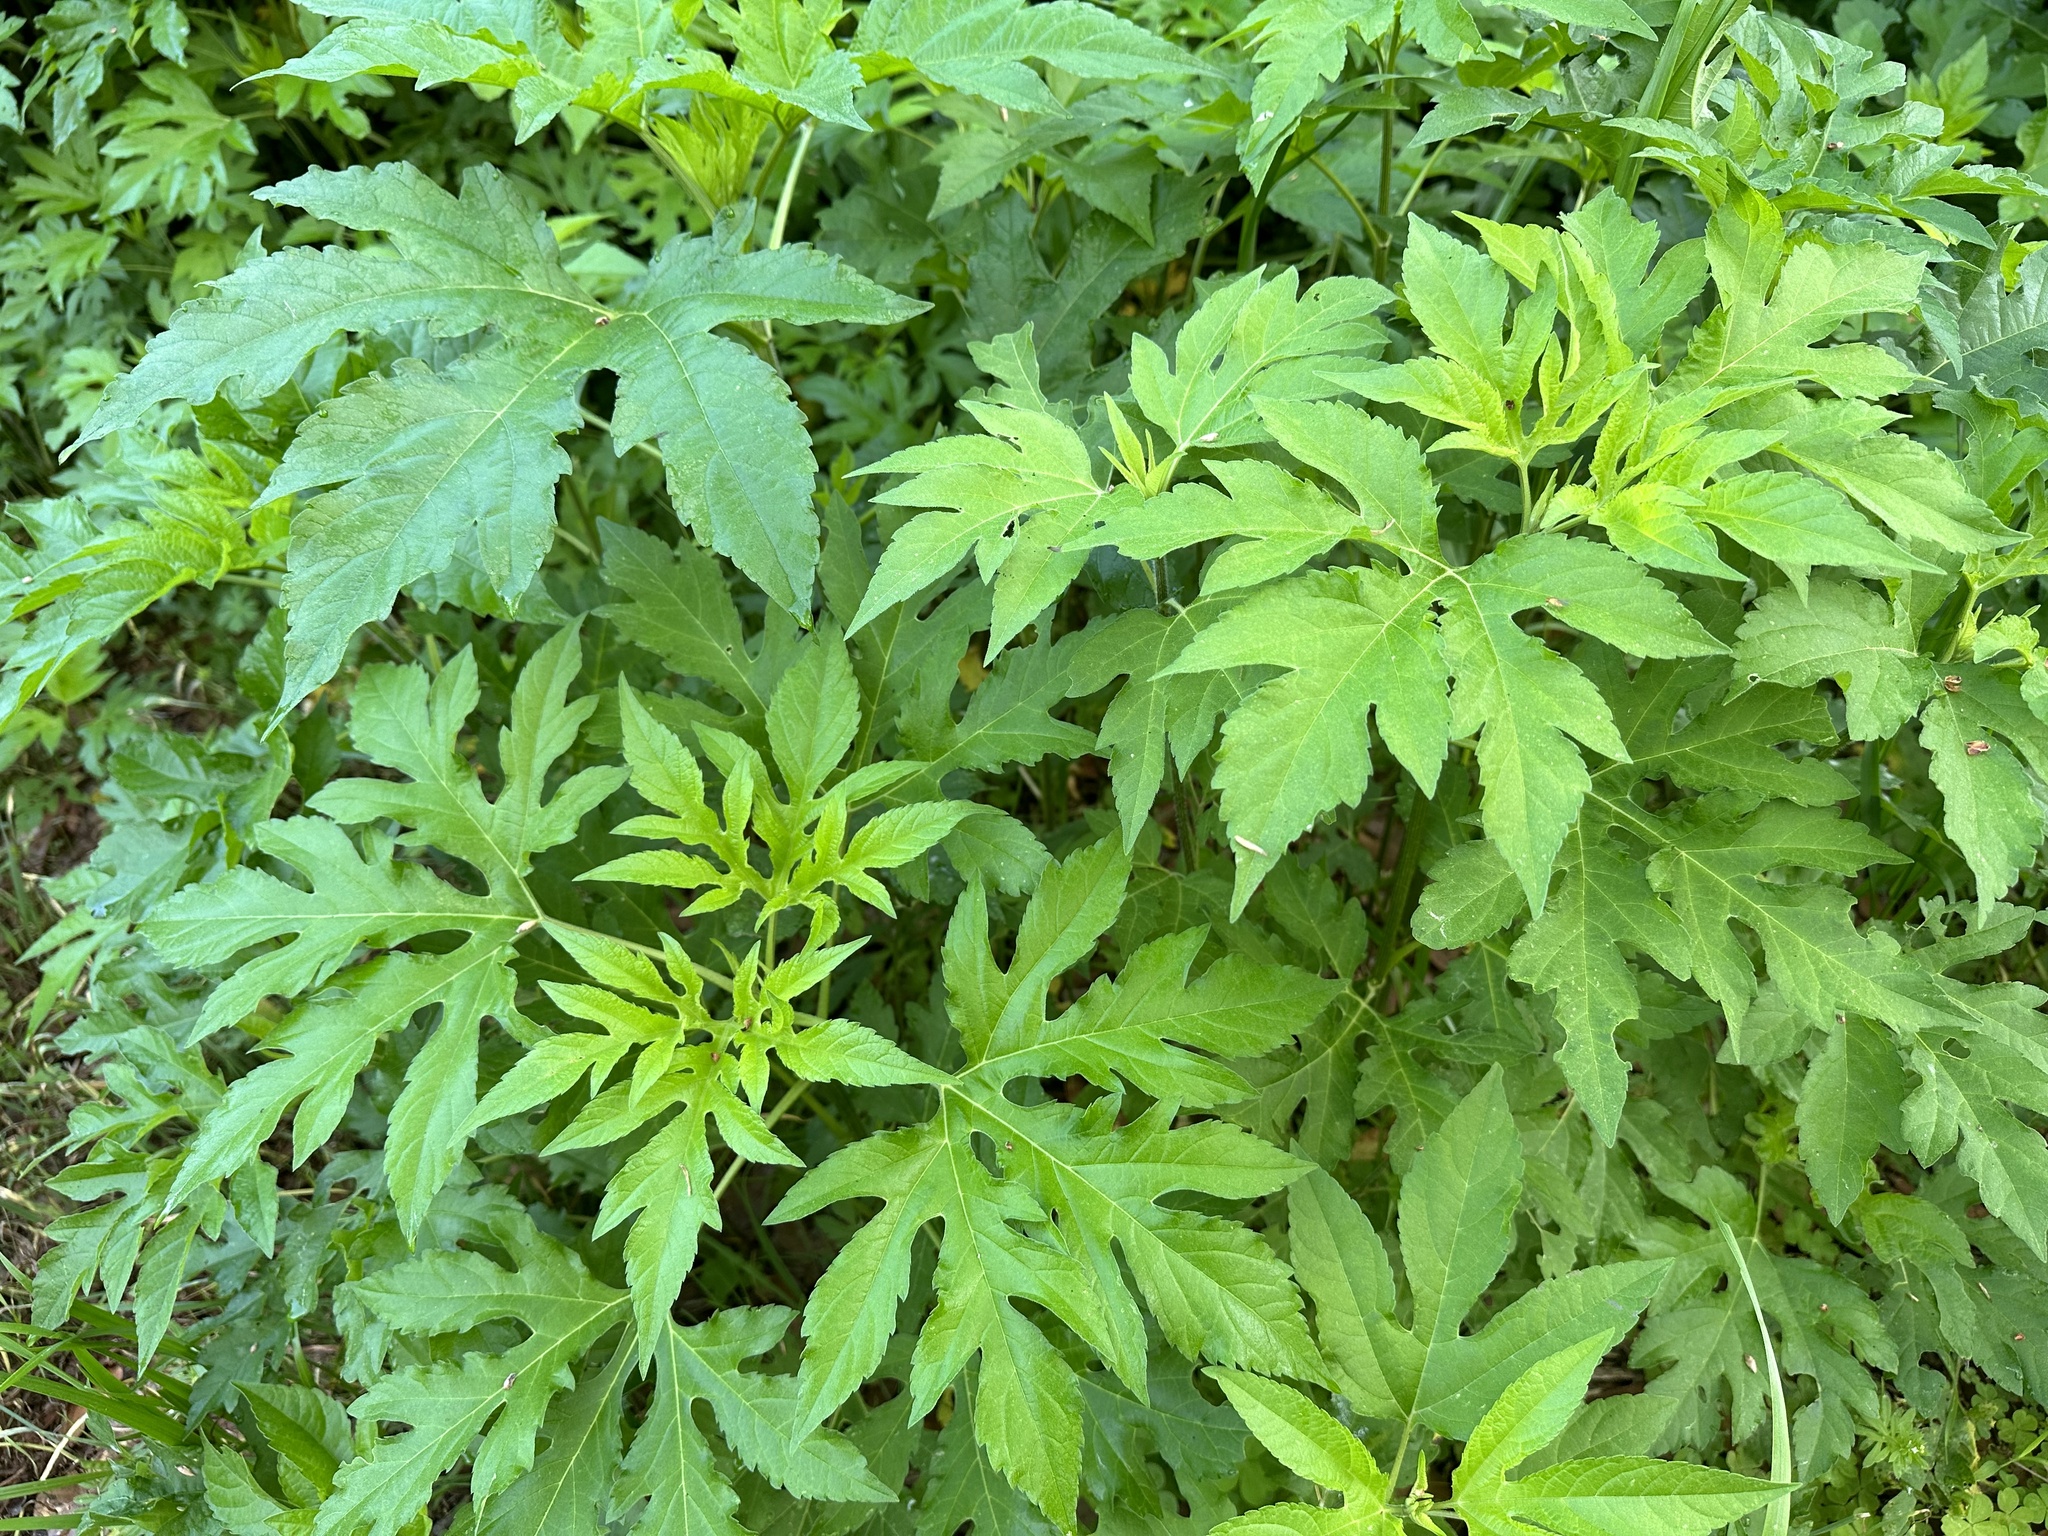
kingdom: Plantae
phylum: Tracheophyta
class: Magnoliopsida
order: Asterales
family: Asteraceae
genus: Ambrosia
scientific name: Ambrosia trifida
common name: Giant ragweed
